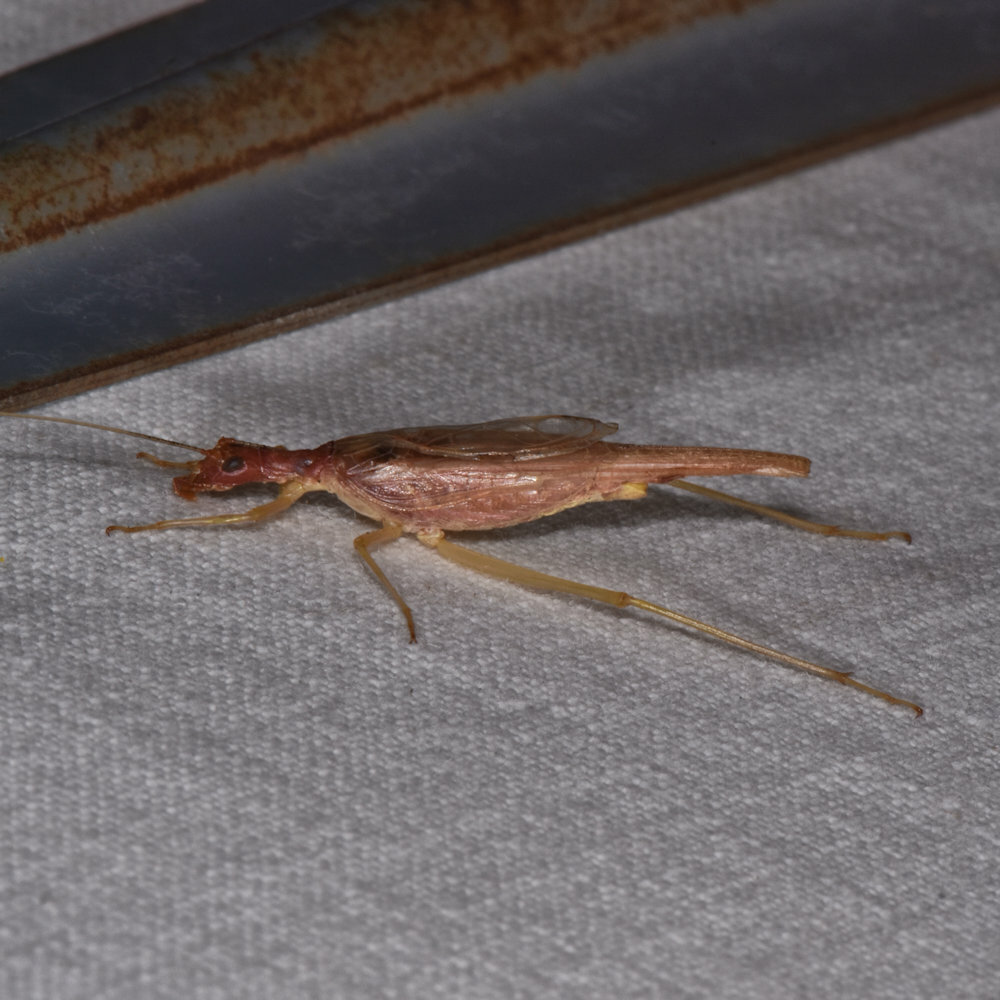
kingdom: Animalia
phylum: Arthropoda
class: Insecta
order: Orthoptera
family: Gryllidae
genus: Neoxabea
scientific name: Neoxabea bipunctata
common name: Two-spotted tree cricket
